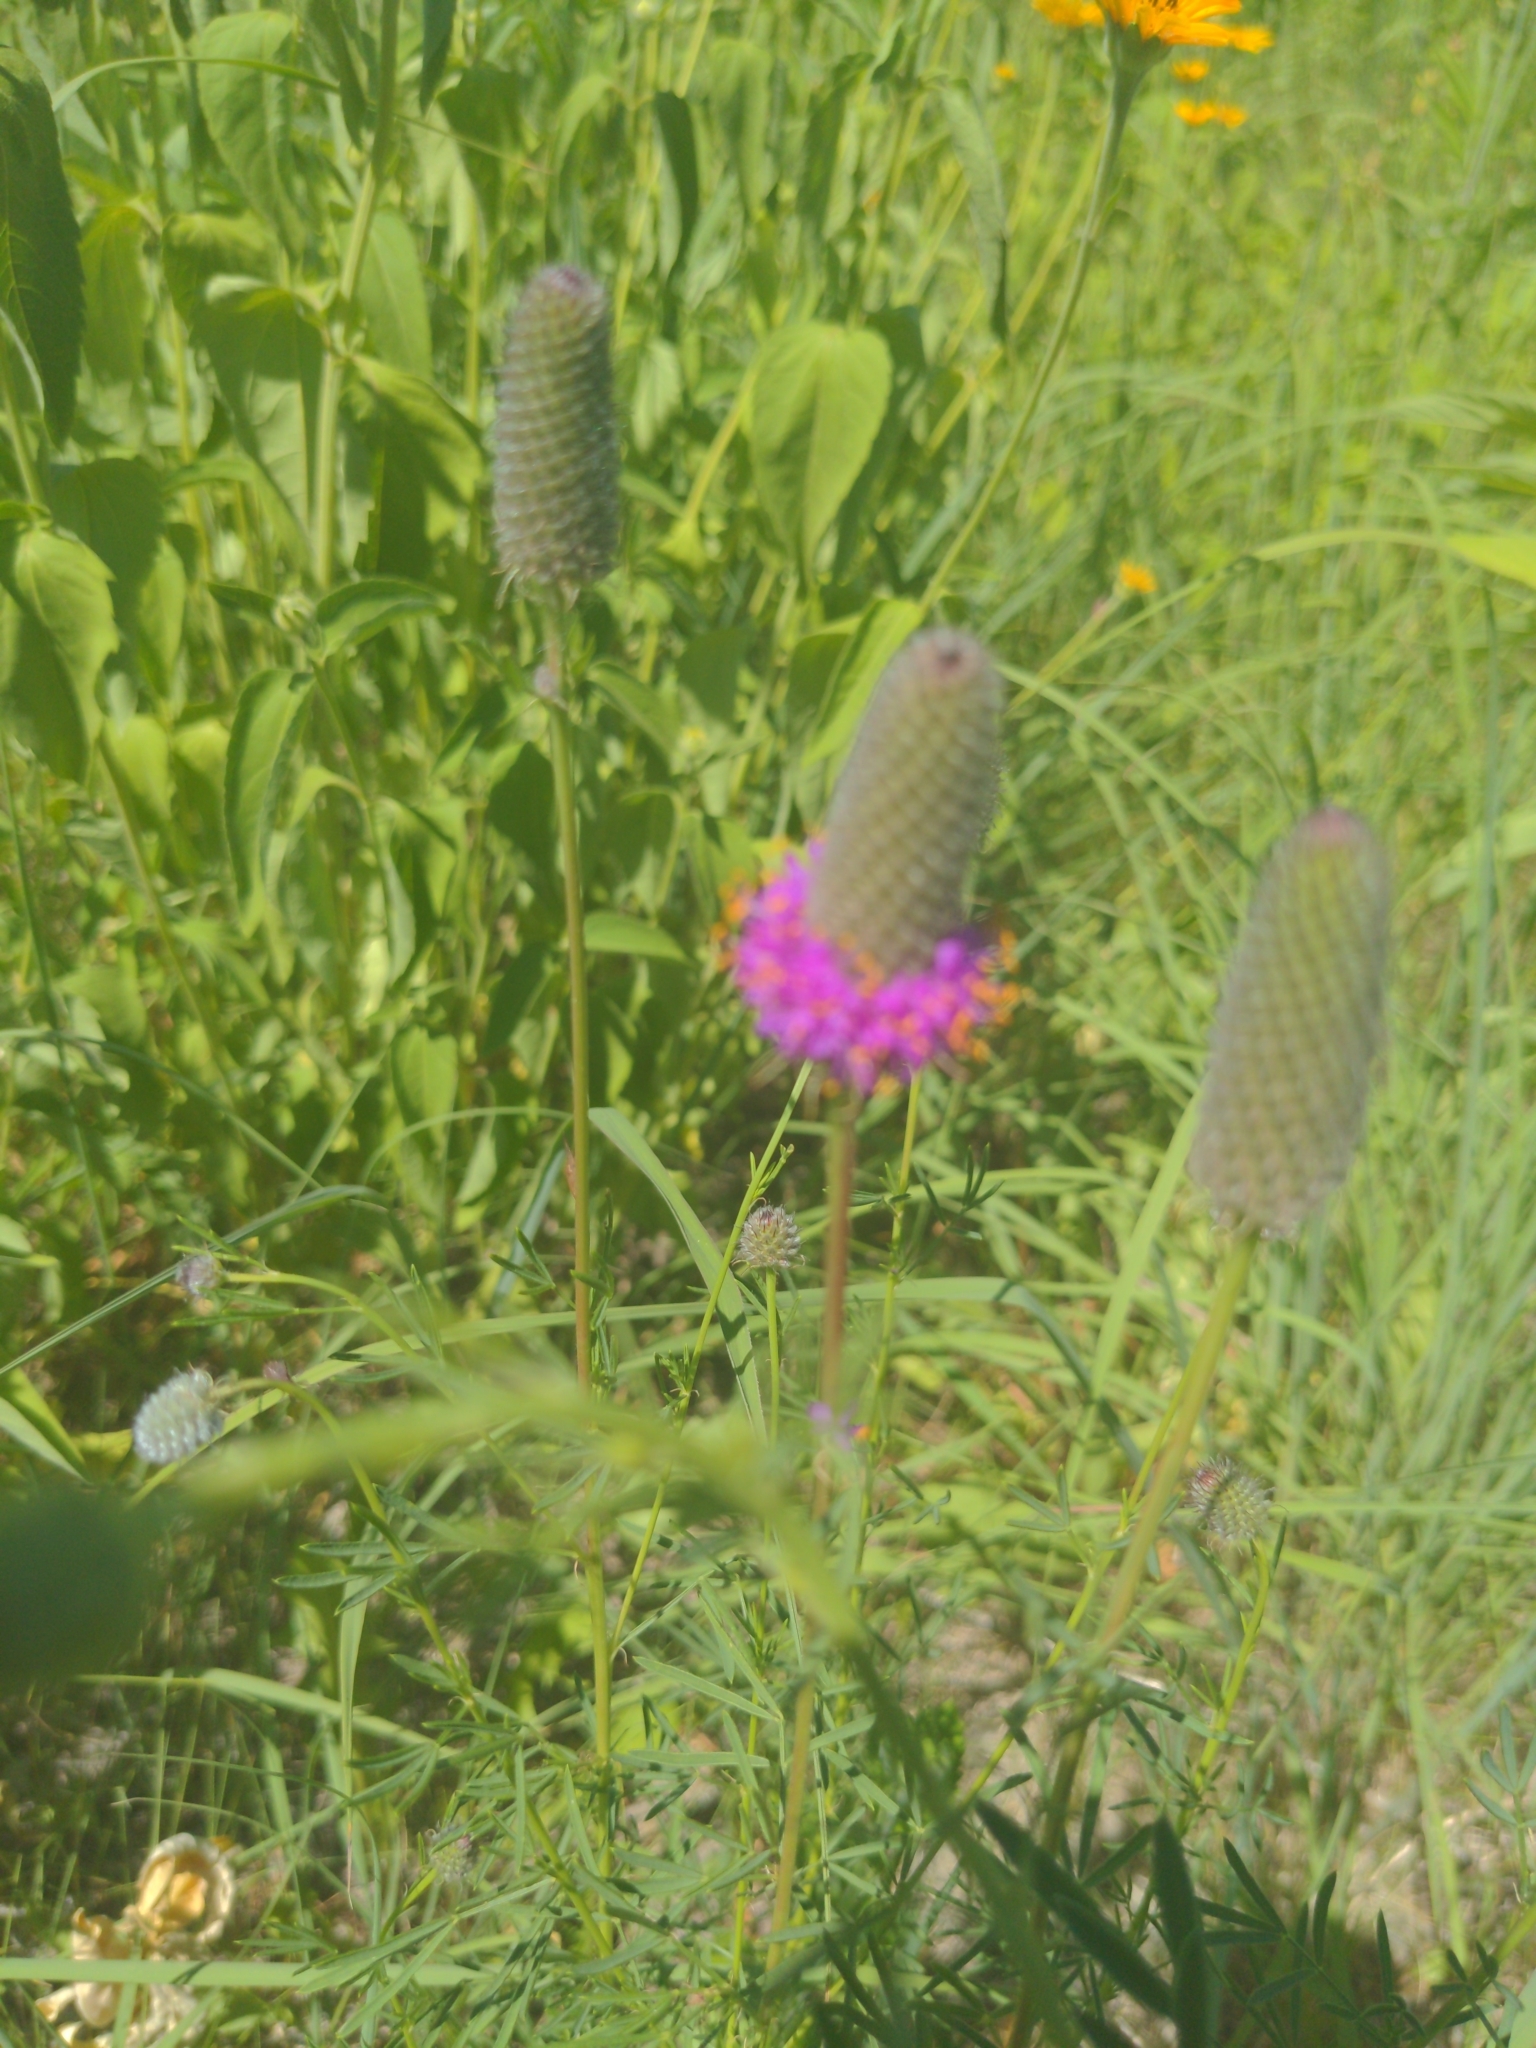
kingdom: Plantae
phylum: Tracheophyta
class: Magnoliopsida
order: Fabales
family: Fabaceae
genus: Dalea
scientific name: Dalea purpurea
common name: Purple prairie-clover
